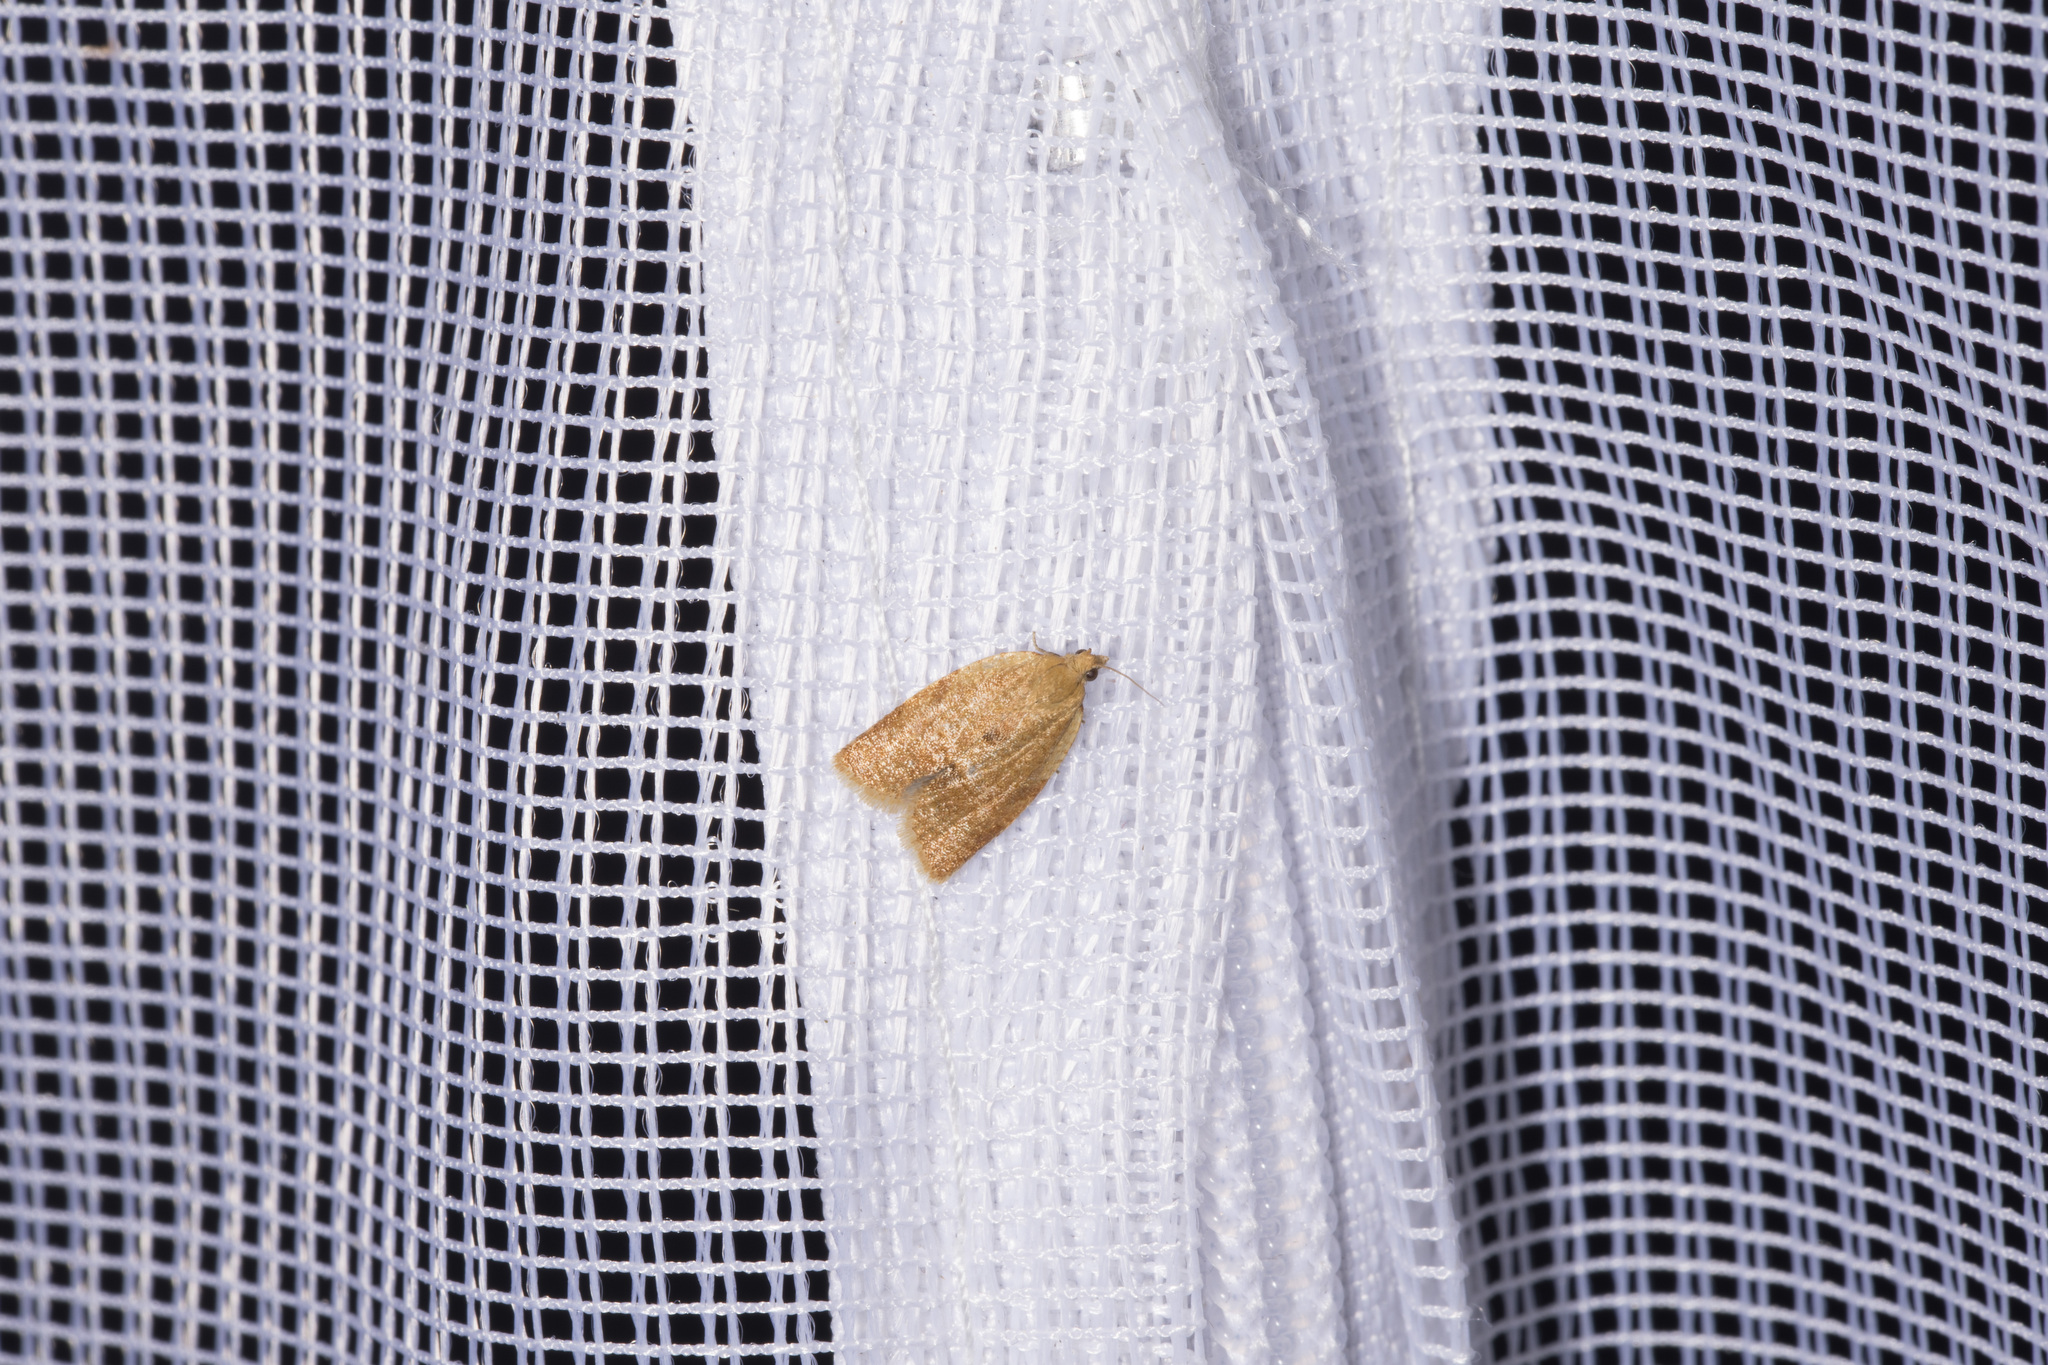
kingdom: Animalia
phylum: Arthropoda
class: Insecta
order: Lepidoptera
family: Tortricidae
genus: Clepsis
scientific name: Clepsis consimilana
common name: Privet tortrix
